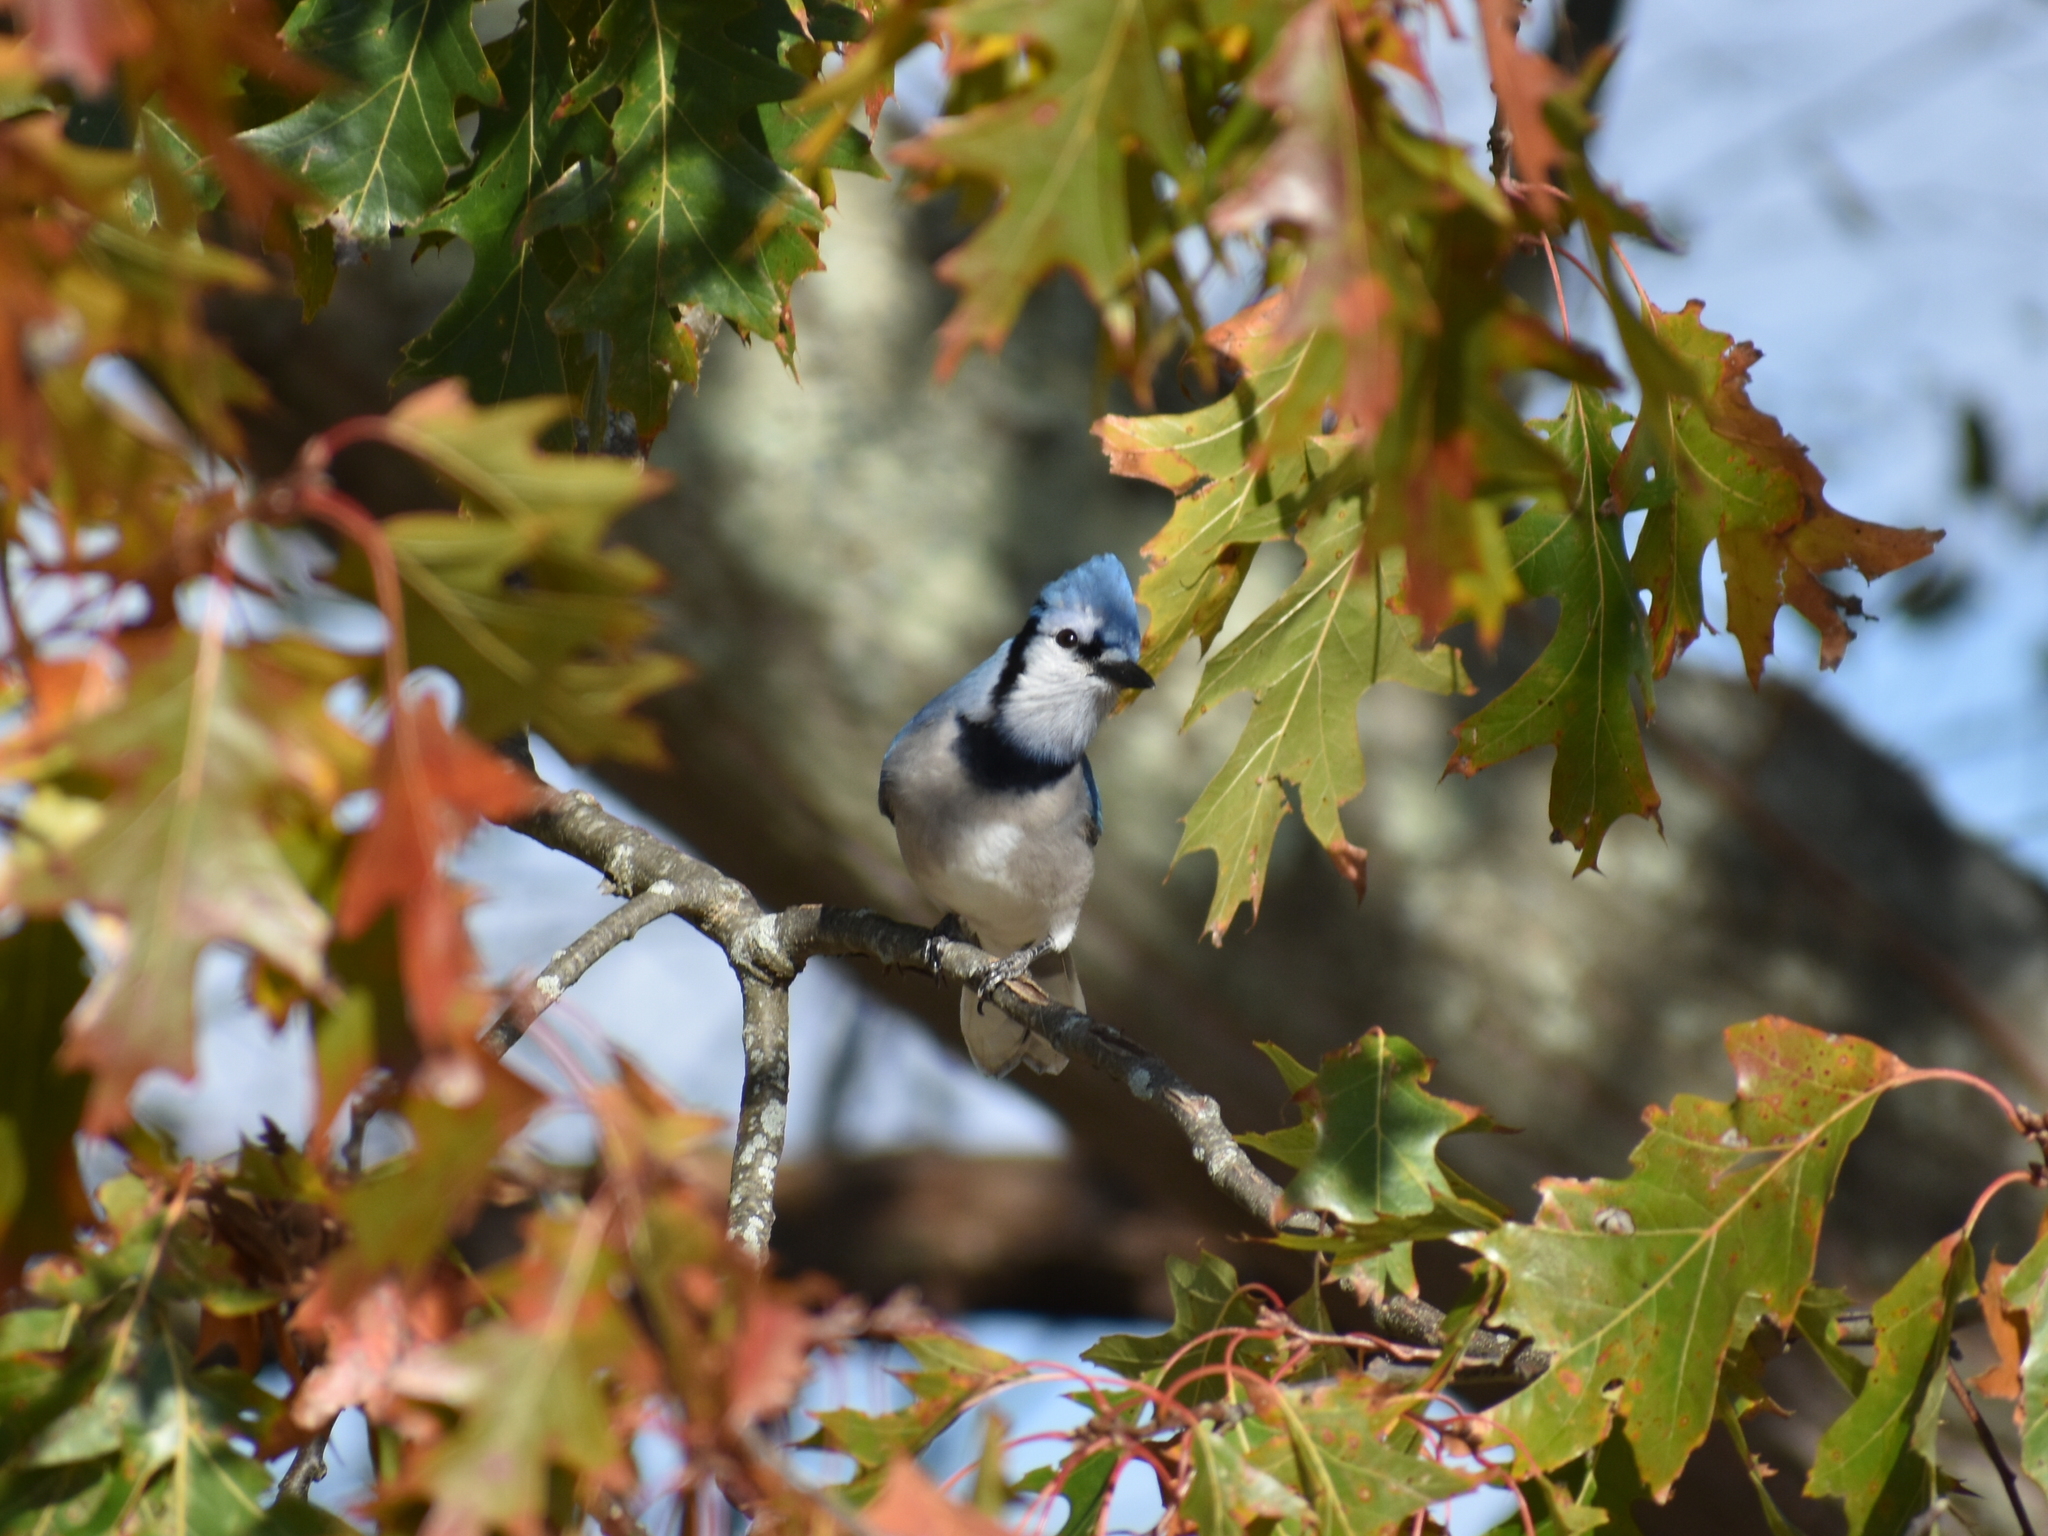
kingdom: Animalia
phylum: Chordata
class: Aves
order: Passeriformes
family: Corvidae
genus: Cyanocitta
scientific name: Cyanocitta cristata
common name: Blue jay
